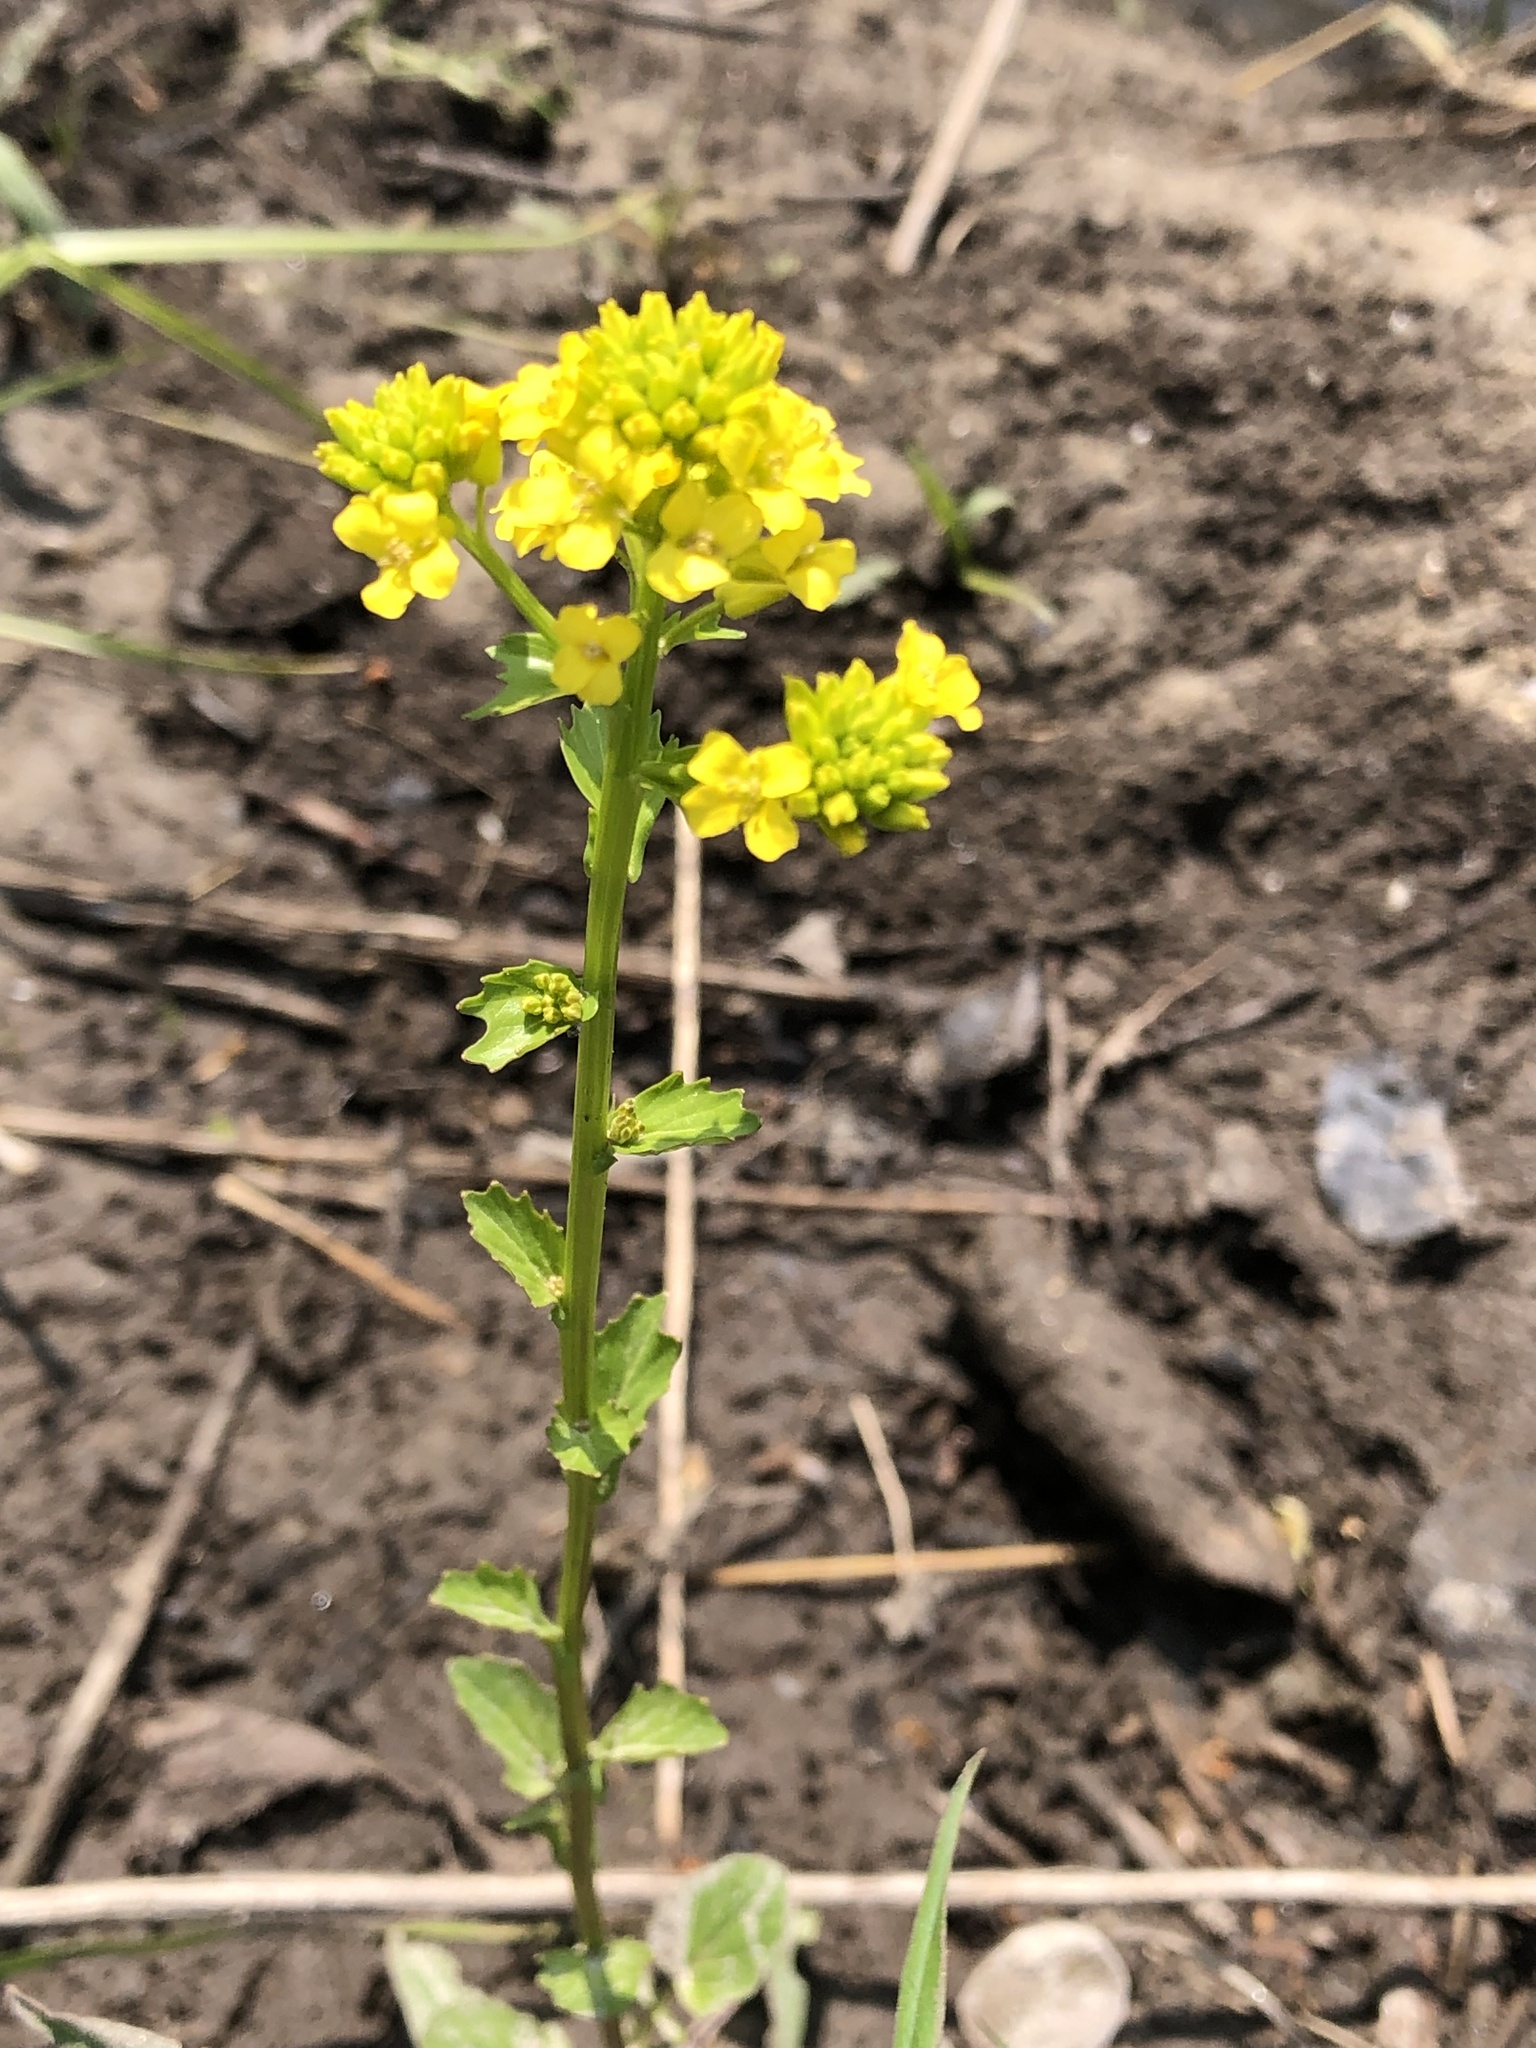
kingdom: Plantae
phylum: Tracheophyta
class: Magnoliopsida
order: Brassicales
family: Brassicaceae
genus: Barbarea
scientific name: Barbarea vulgaris
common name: Cressy-greens
